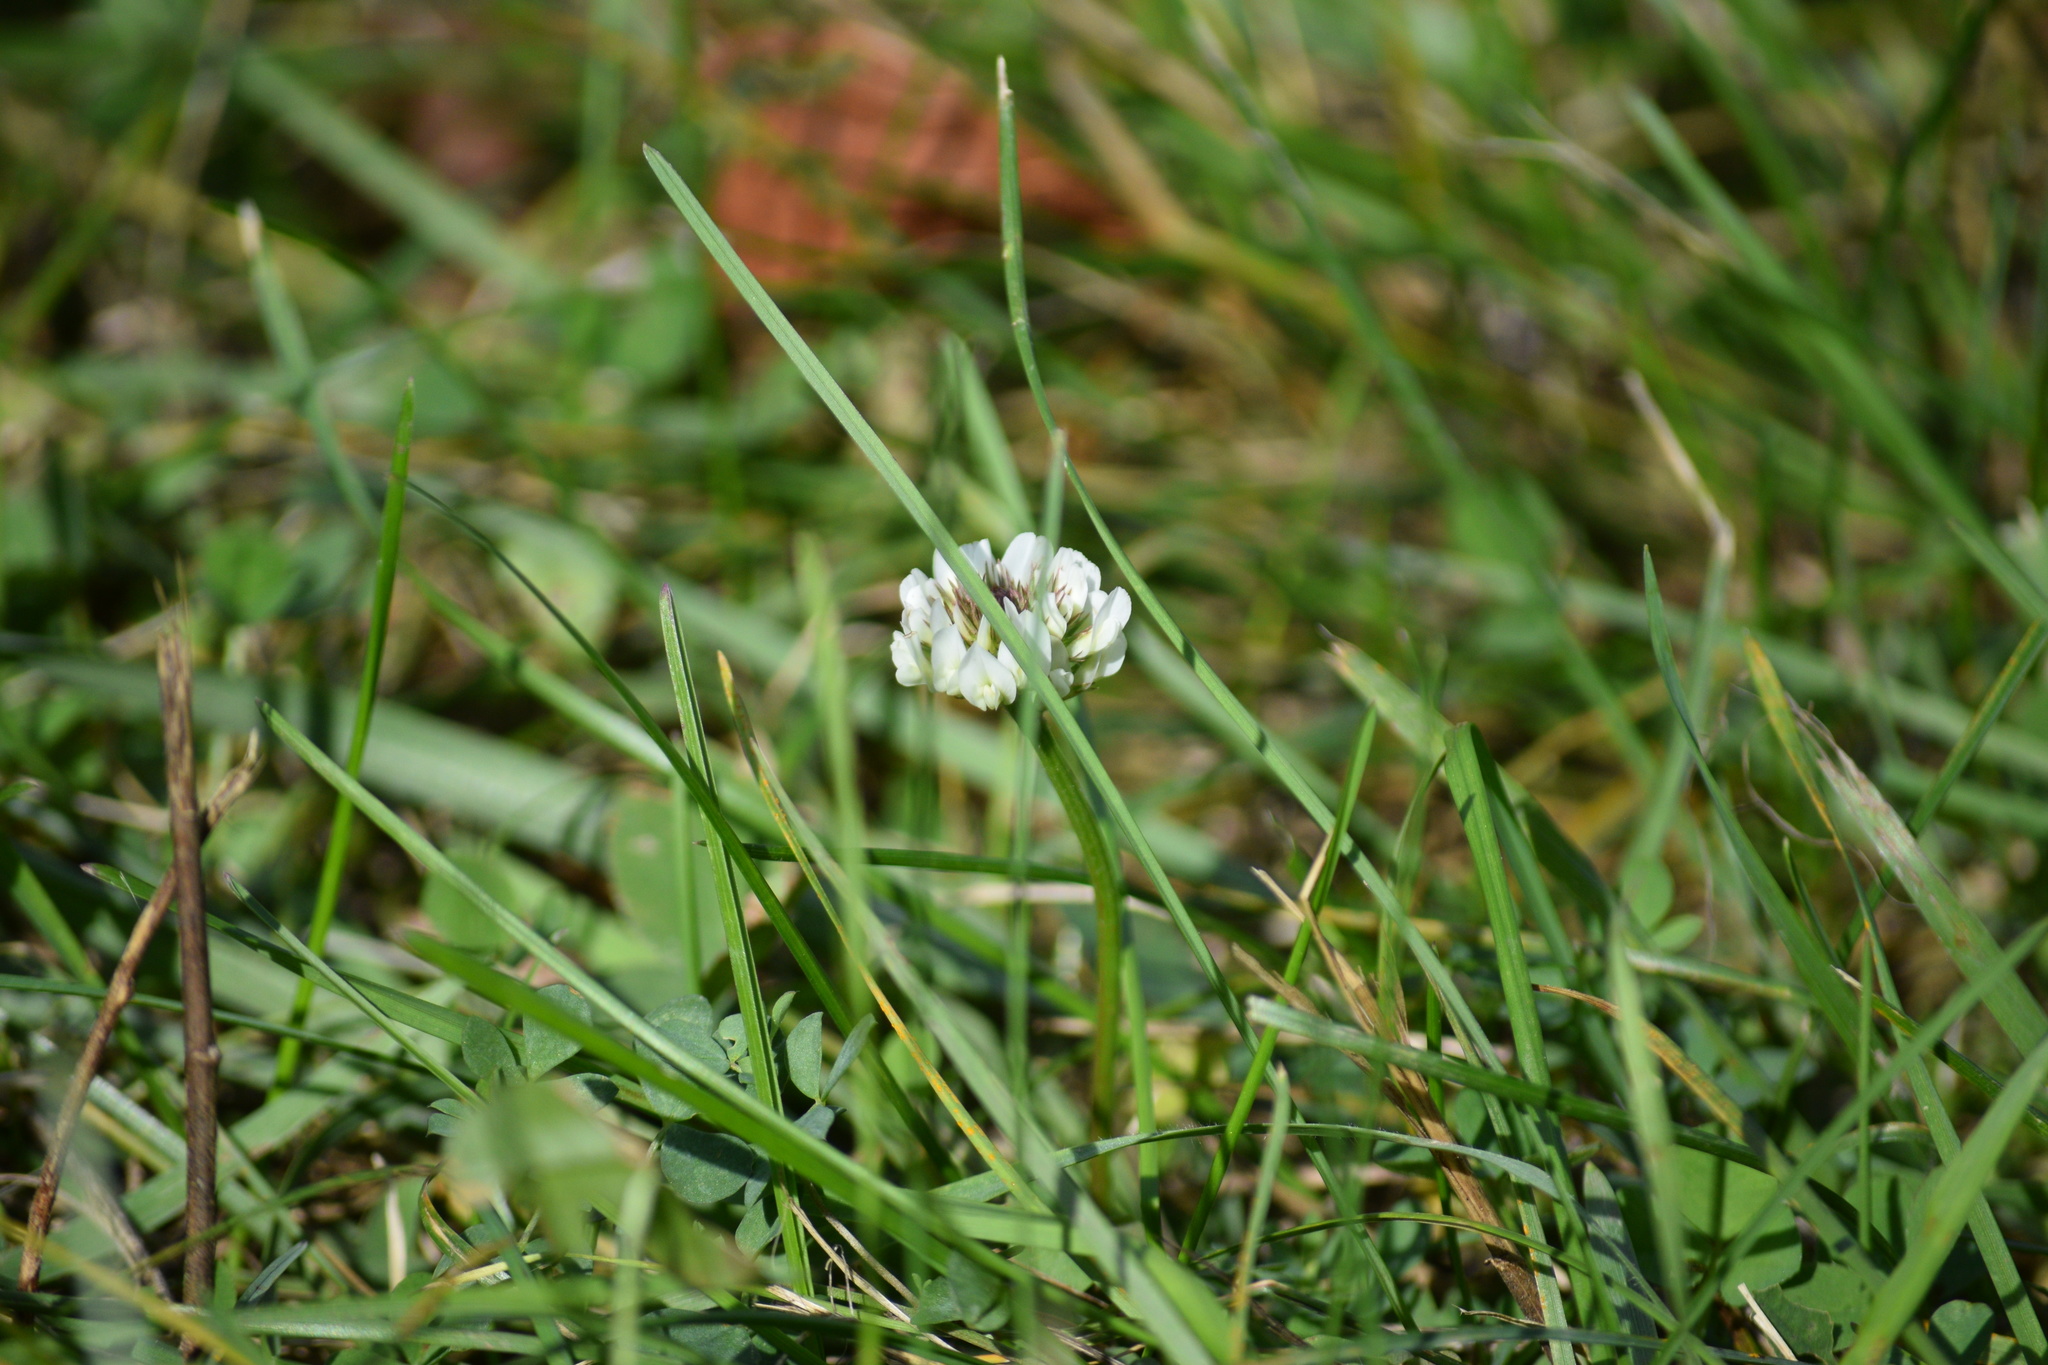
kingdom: Plantae
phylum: Tracheophyta
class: Magnoliopsida
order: Fabales
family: Fabaceae
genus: Trifolium
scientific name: Trifolium repens
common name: White clover
